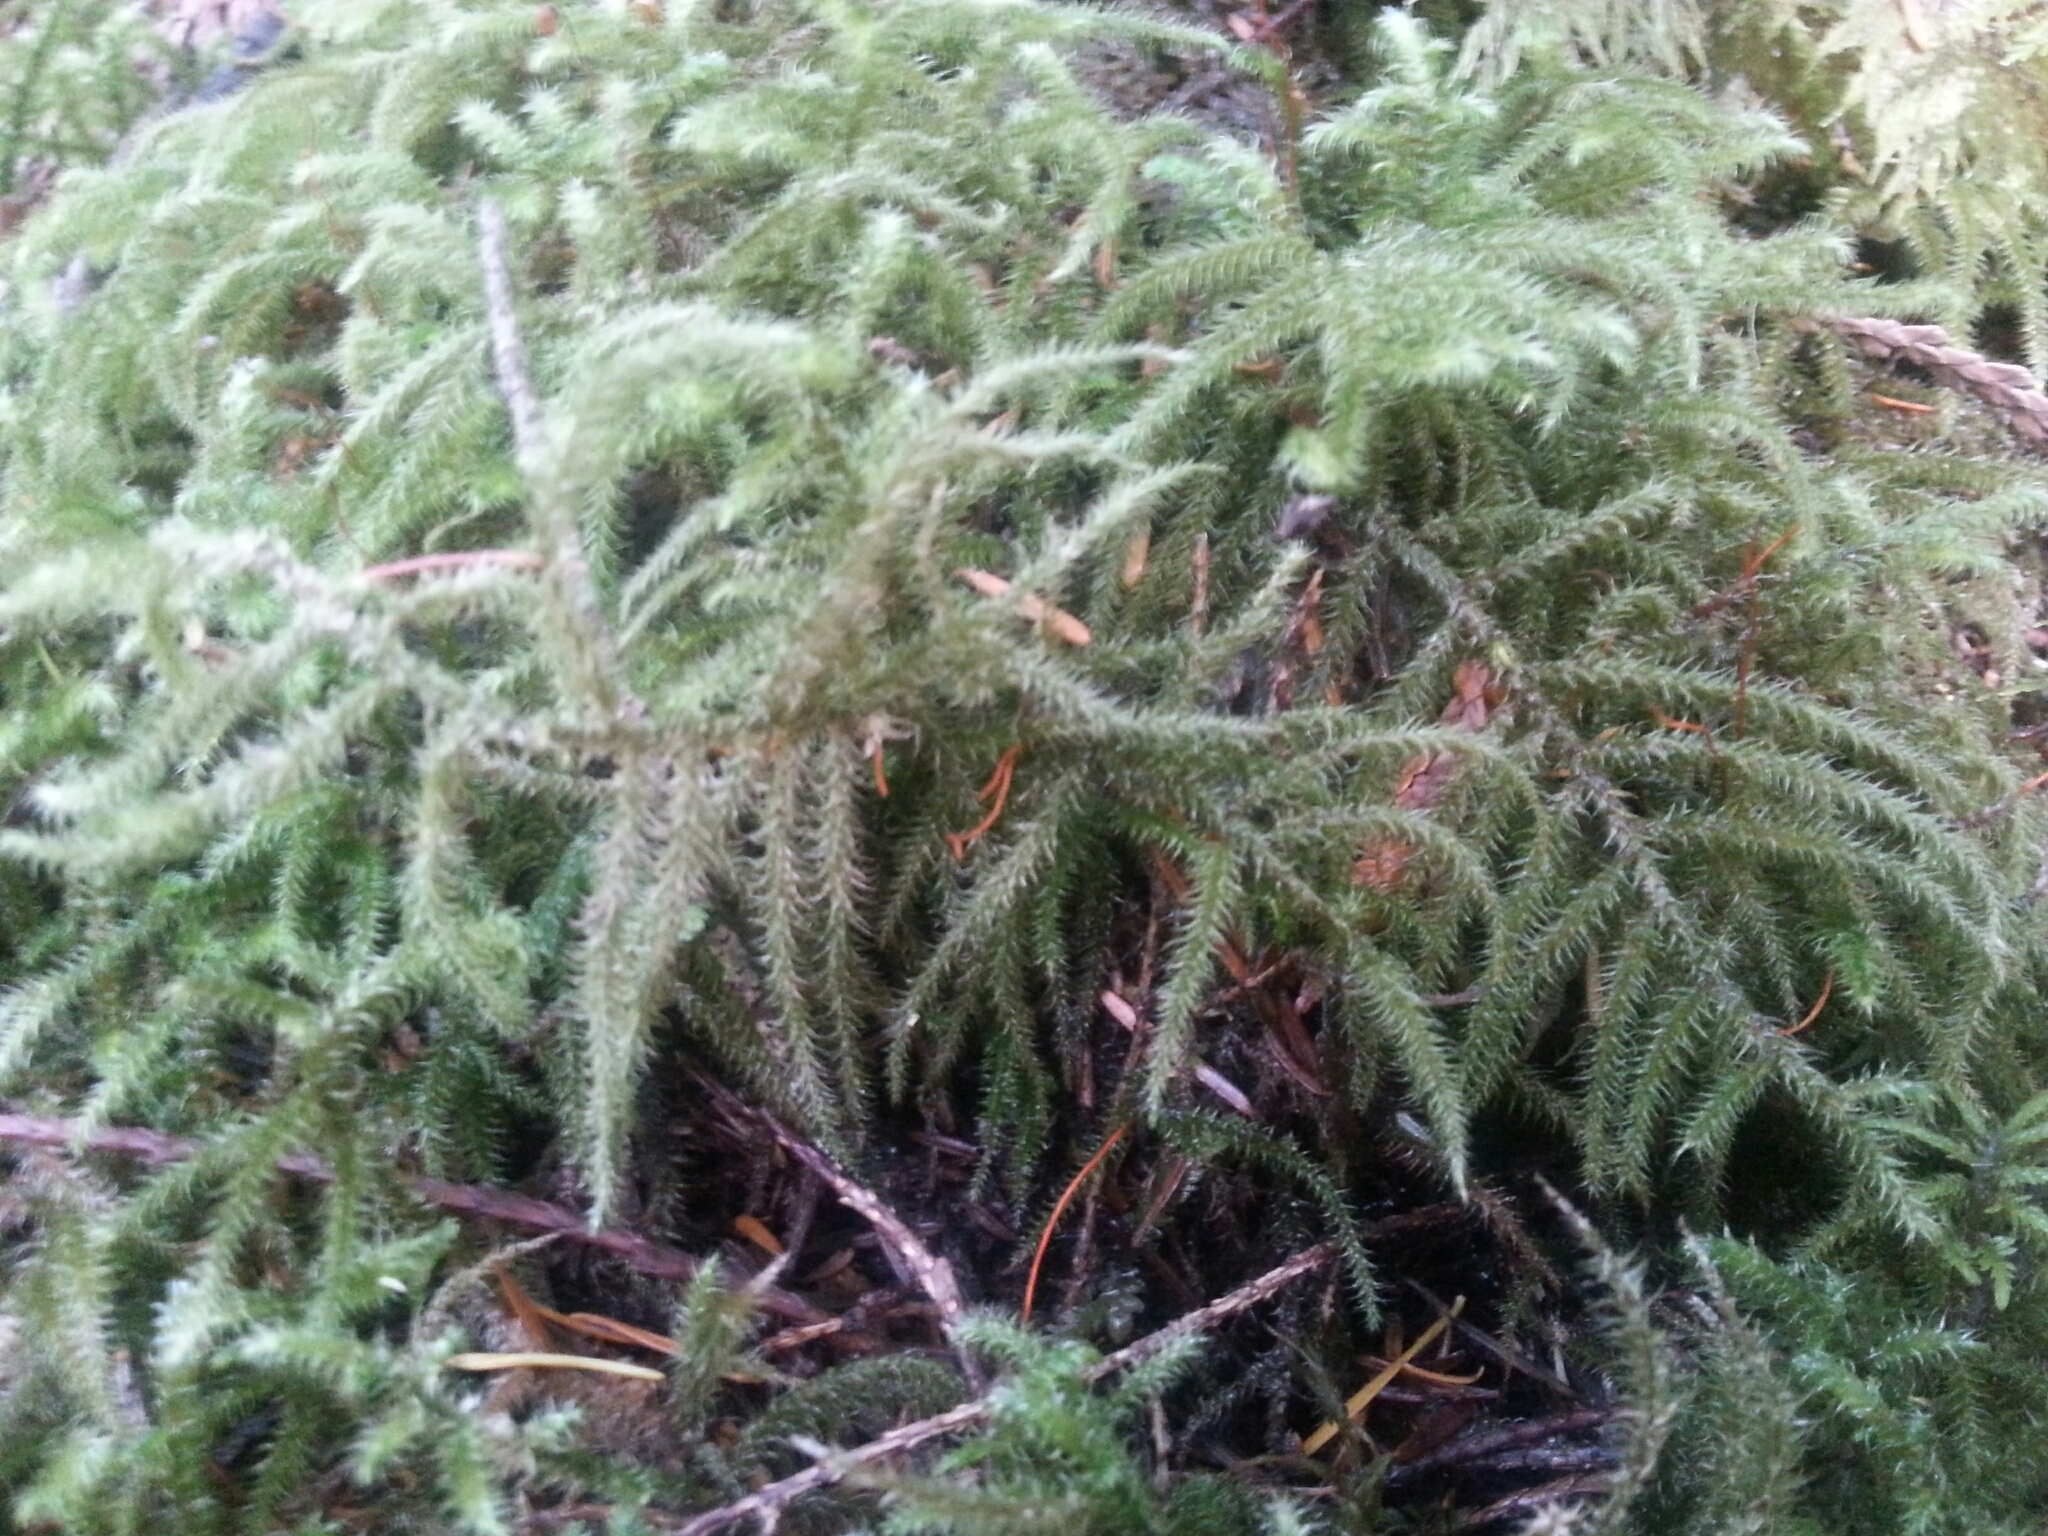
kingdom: Plantae
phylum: Bryophyta
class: Bryopsida
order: Hypnales
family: Hylocomiaceae
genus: Rhytidiadelphus
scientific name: Rhytidiadelphus loreus
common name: Lanky moss
